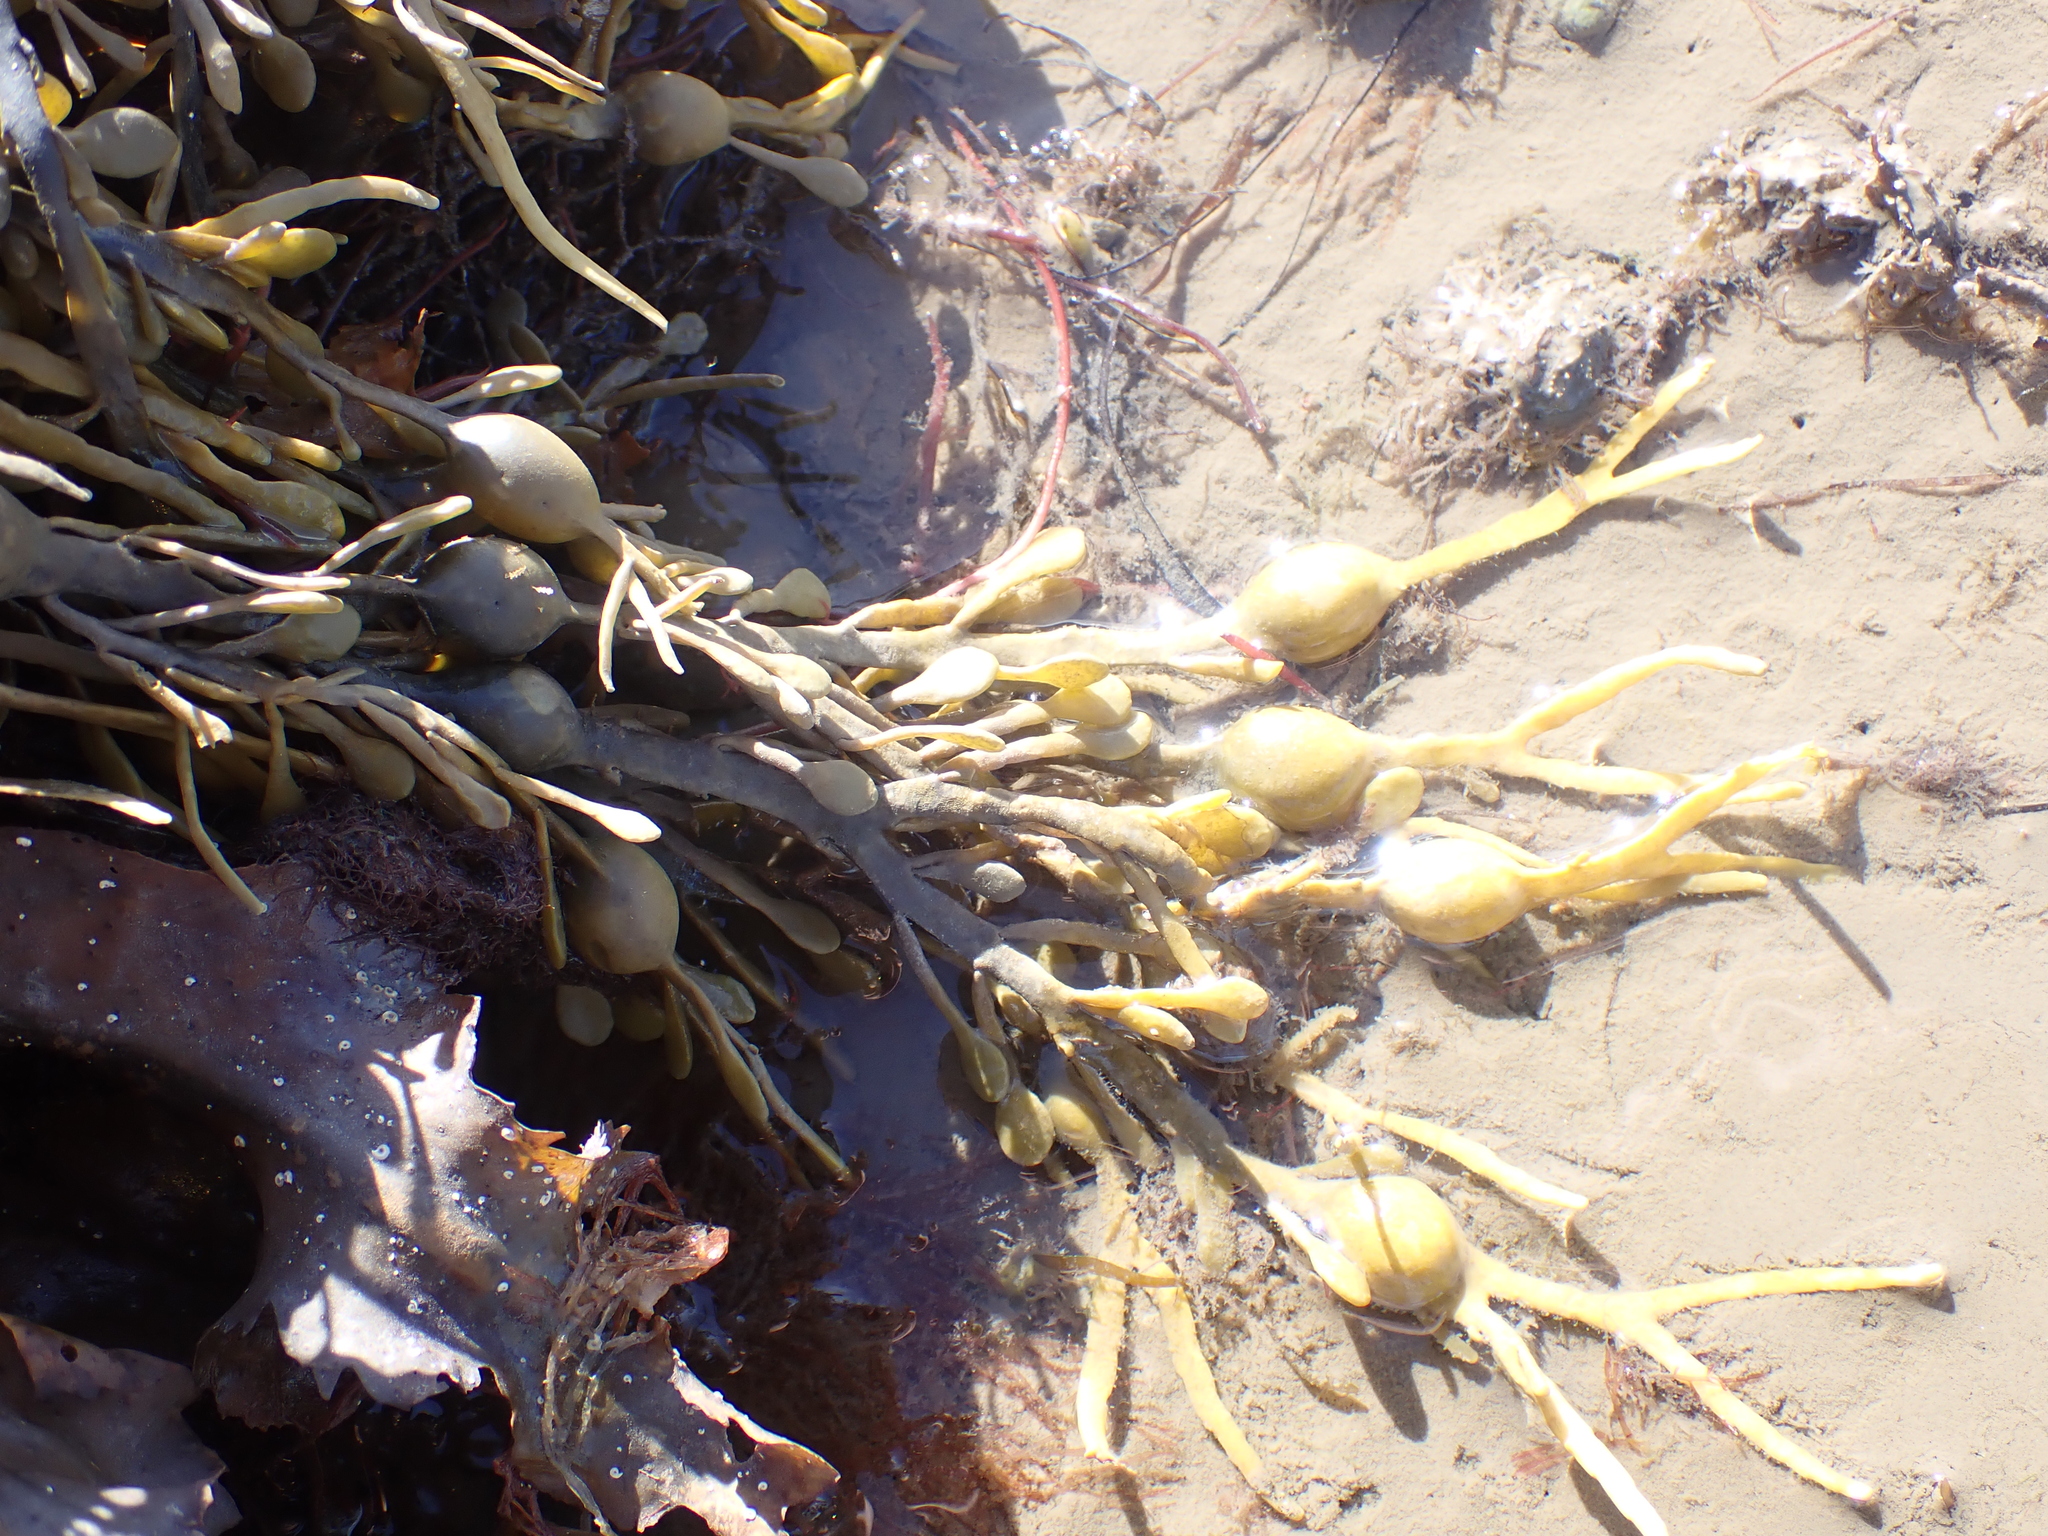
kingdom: Chromista
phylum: Ochrophyta
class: Phaeophyceae
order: Fucales
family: Fucaceae
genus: Ascophyllum
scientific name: Ascophyllum nodosum
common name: Knotted wrack
